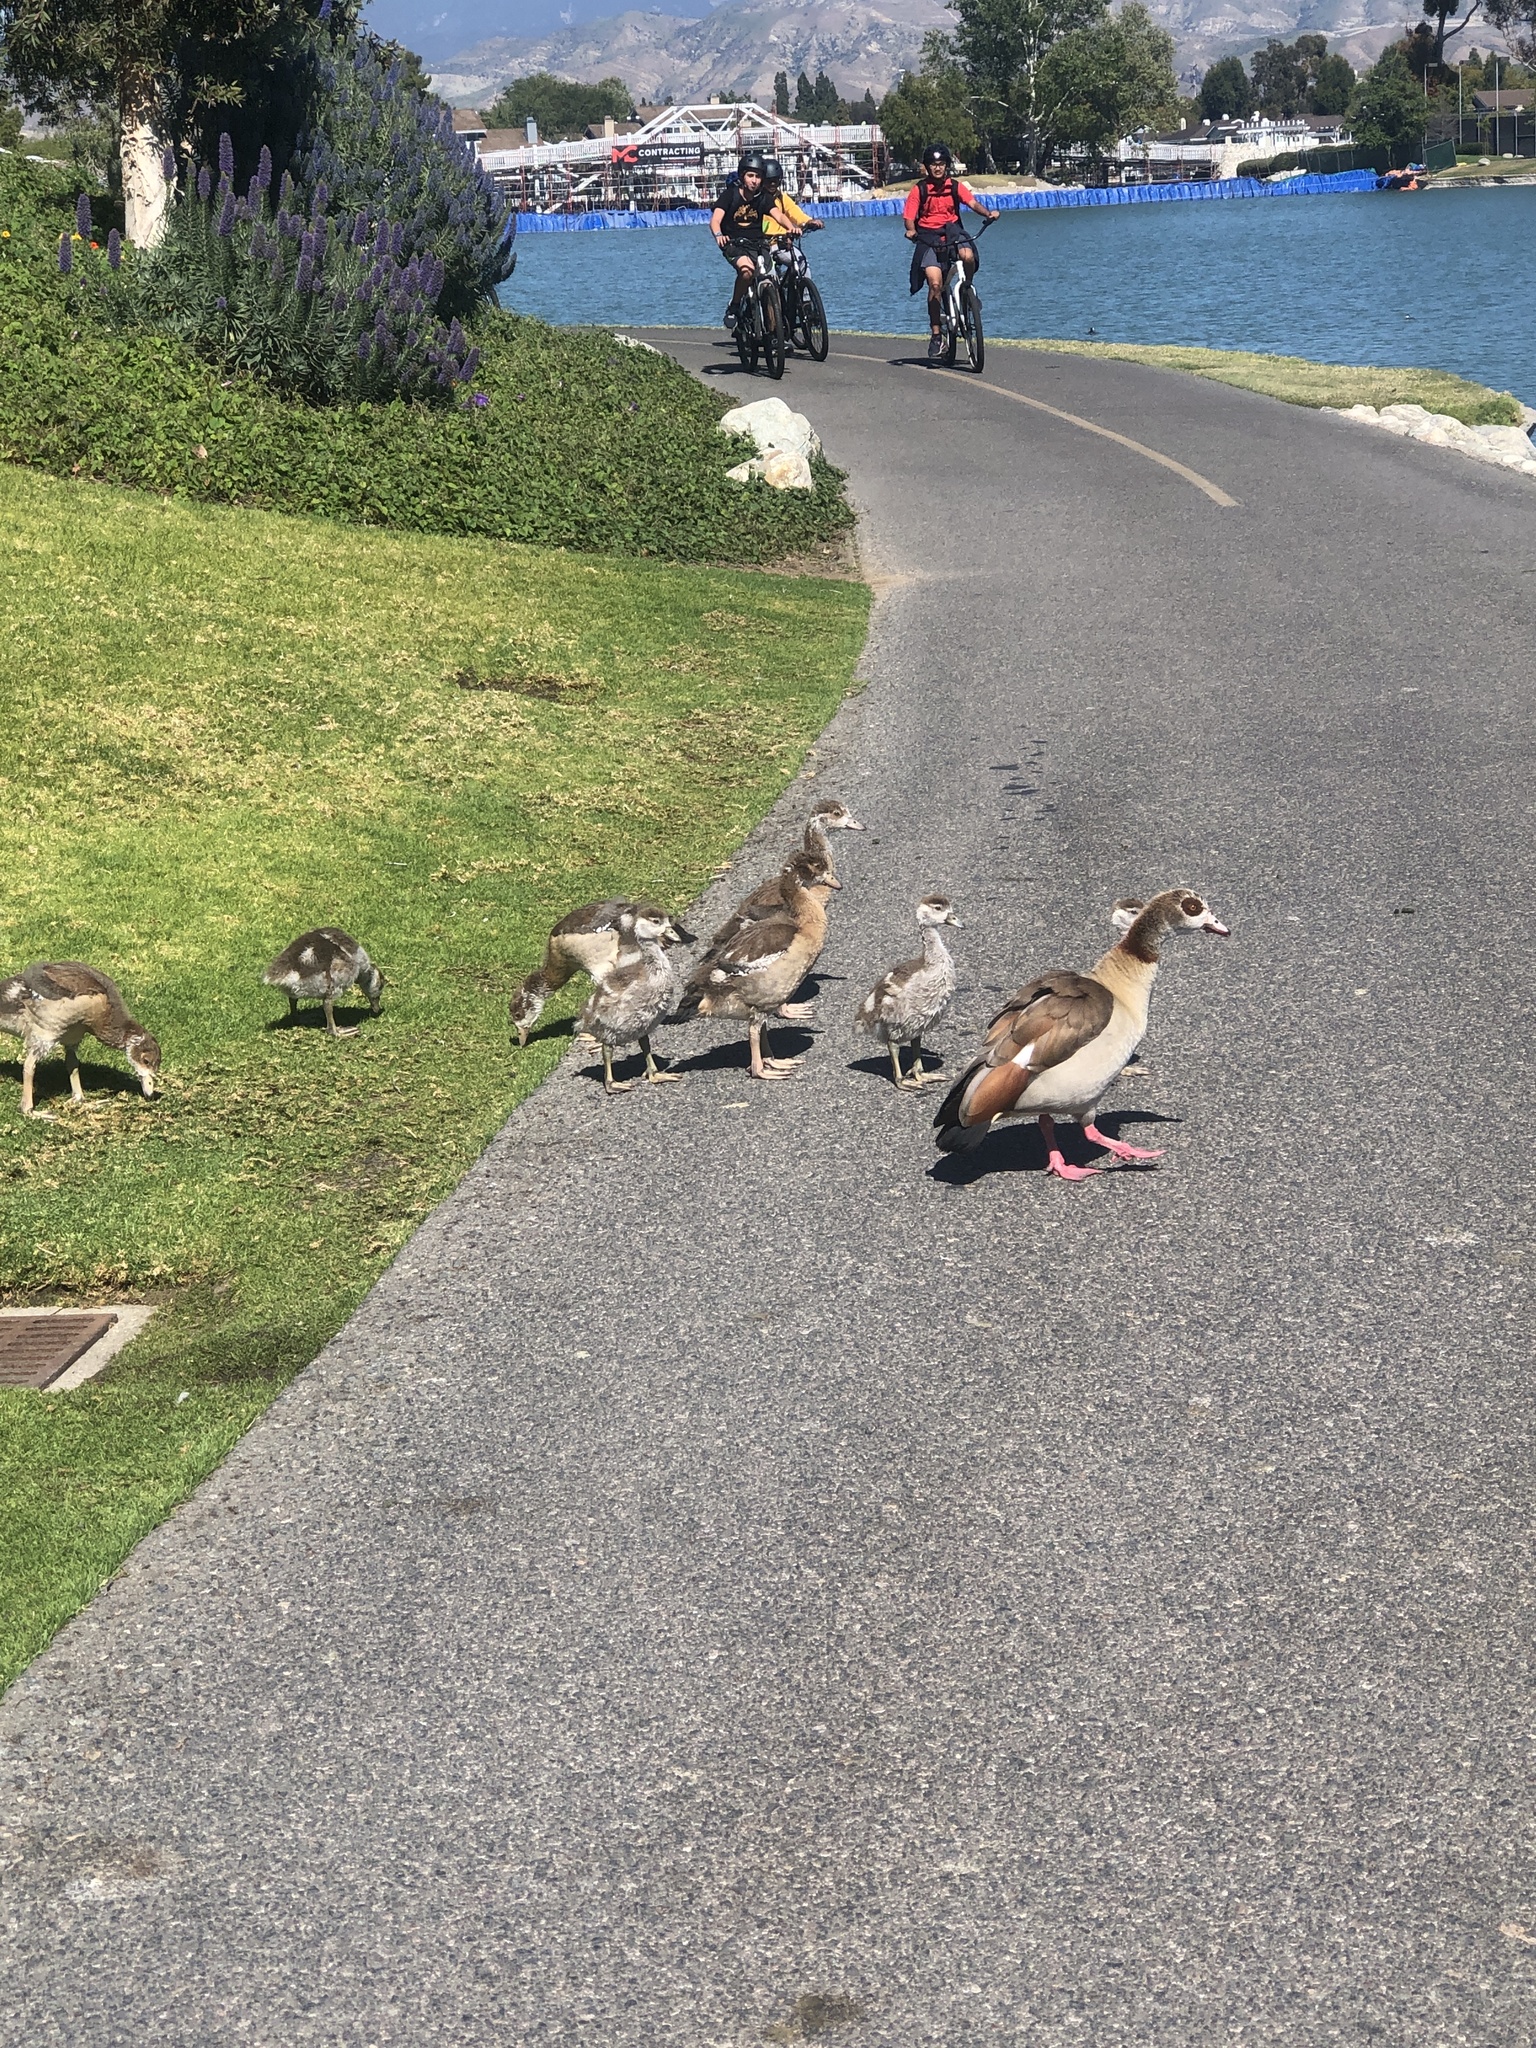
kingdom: Animalia
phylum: Chordata
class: Aves
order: Anseriformes
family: Anatidae
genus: Alopochen
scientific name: Alopochen aegyptiaca
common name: Egyptian goose
